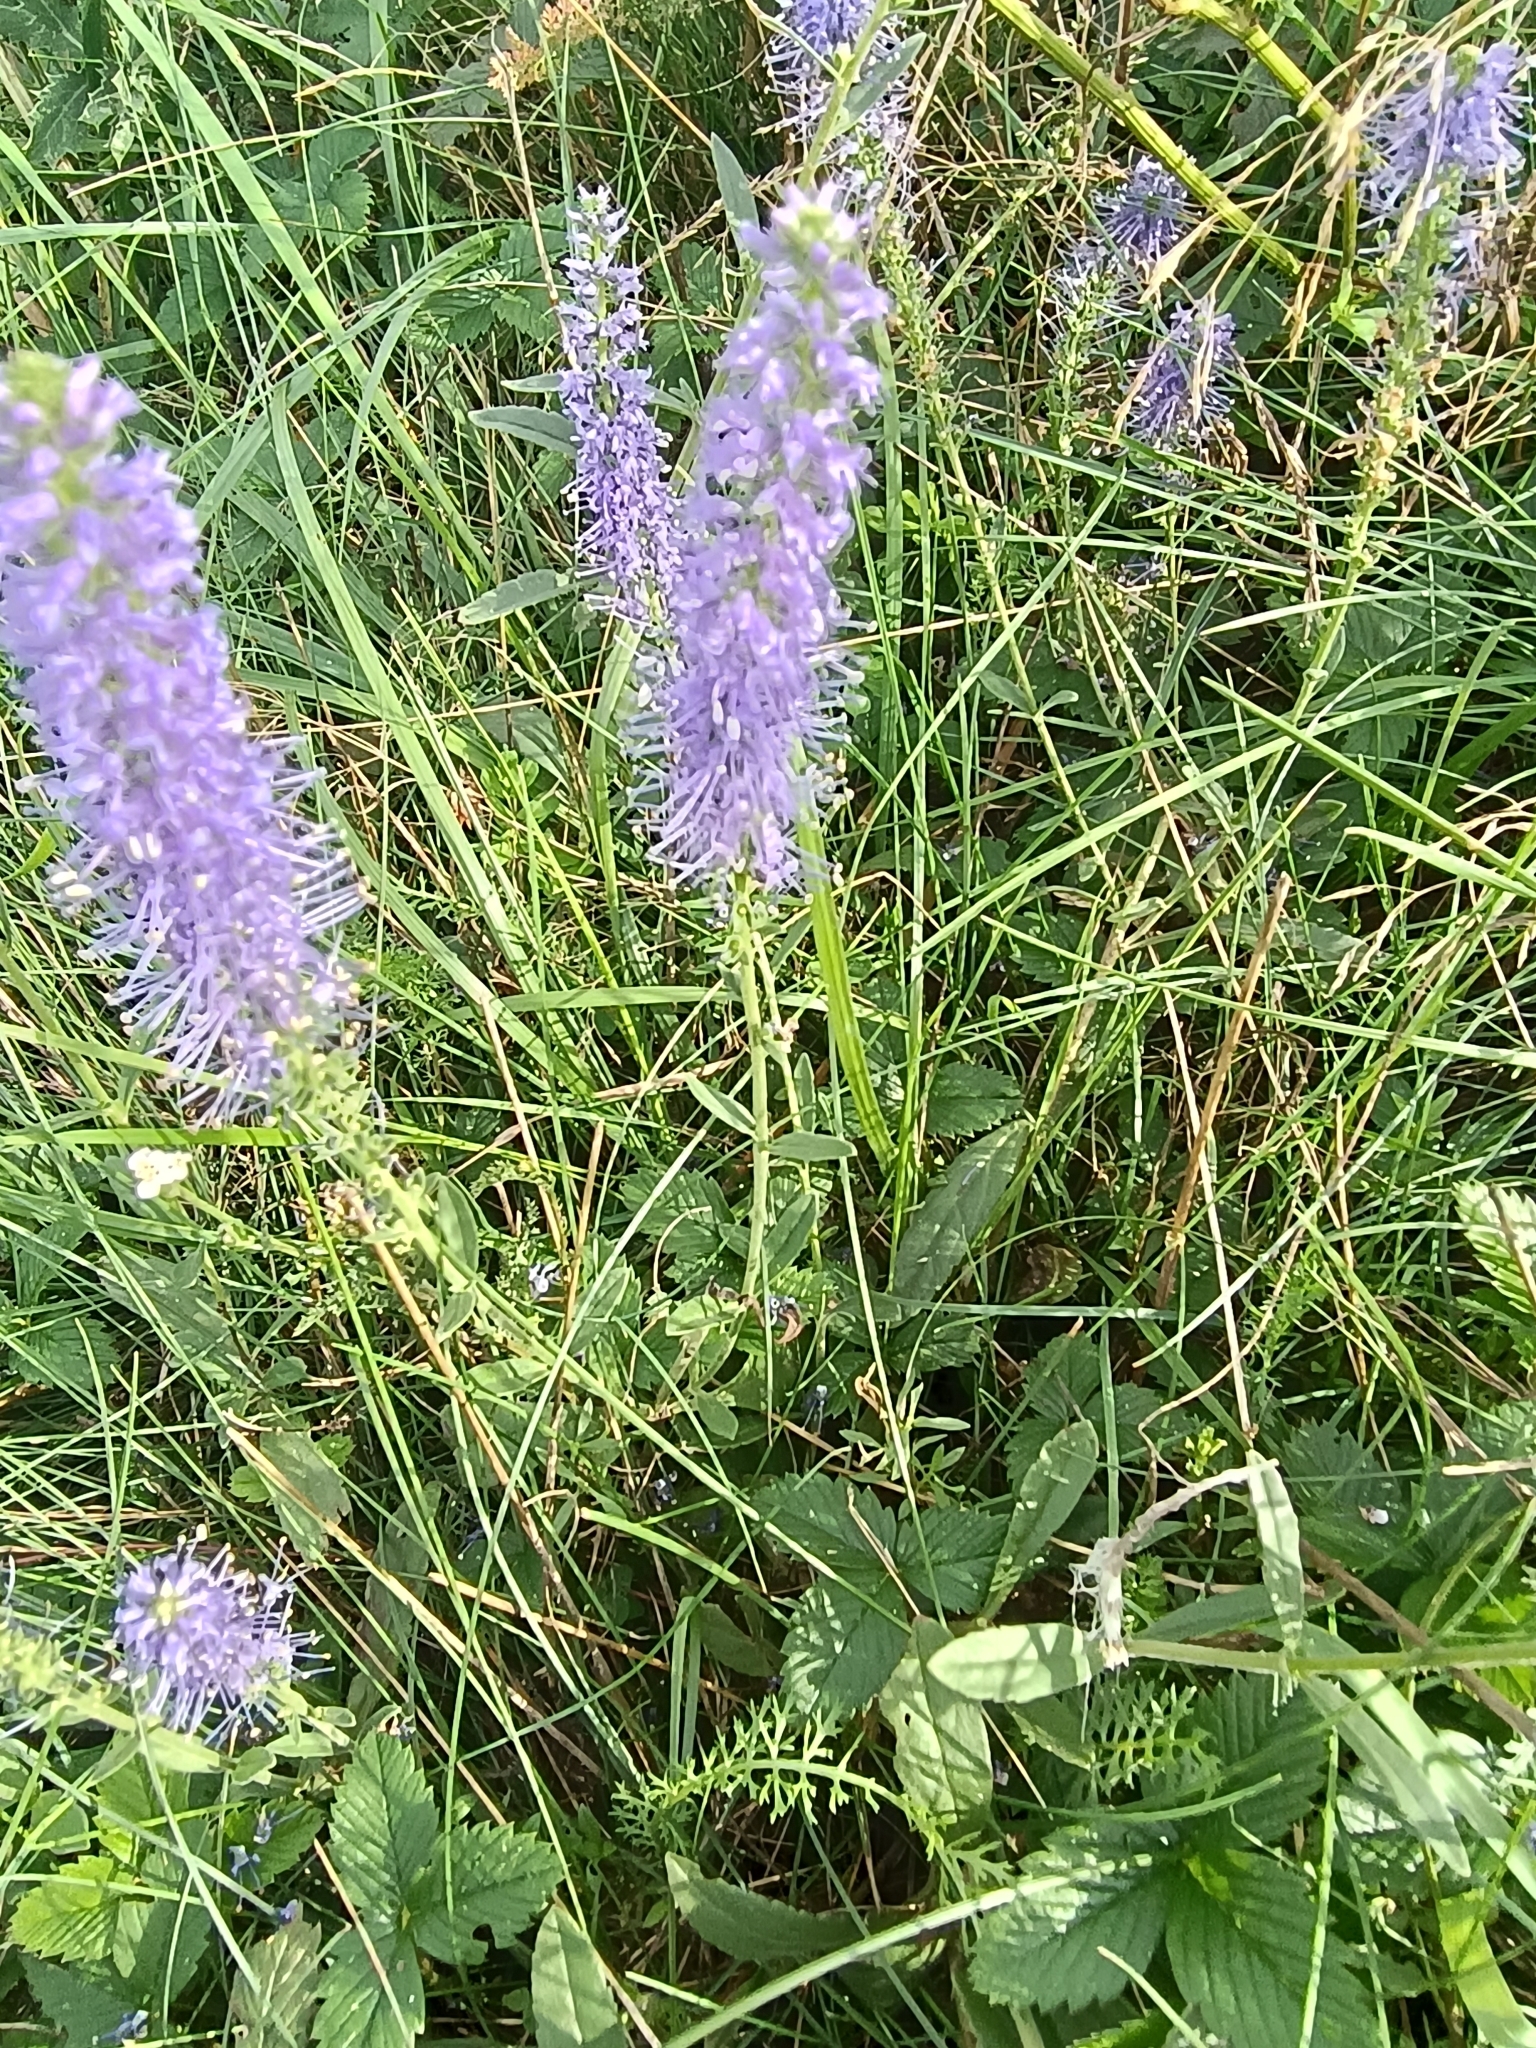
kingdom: Plantae
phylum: Tracheophyta
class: Magnoliopsida
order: Lamiales
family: Plantaginaceae
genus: Veronica
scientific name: Veronica spicata
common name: Spiked speedwell
